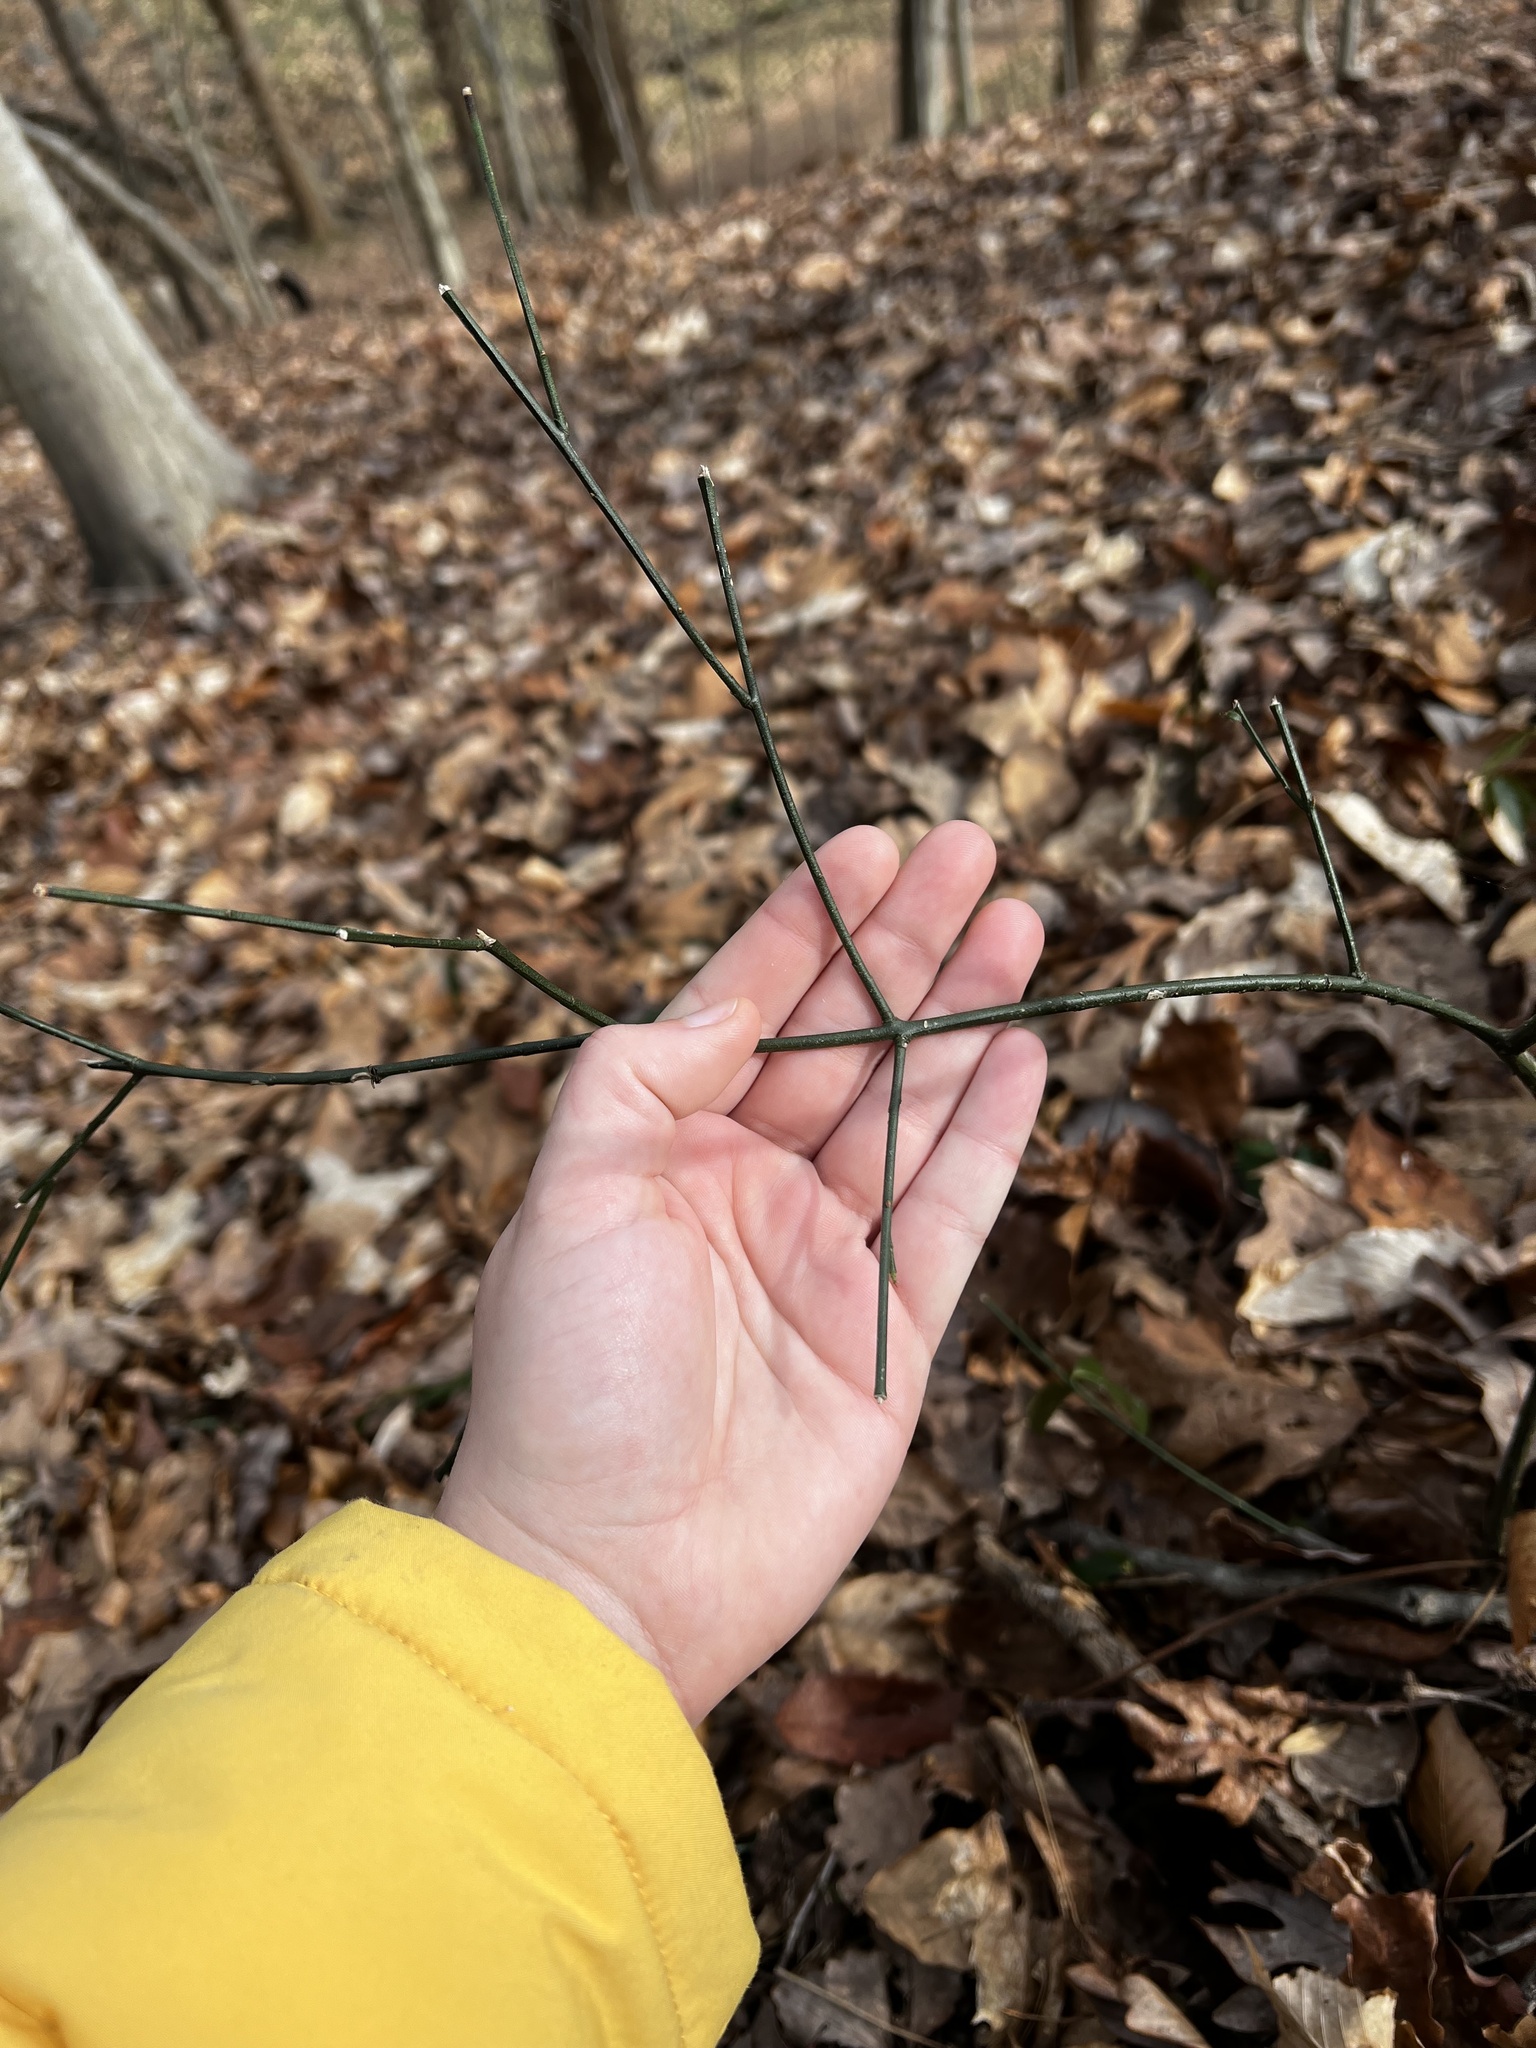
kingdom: Plantae
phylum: Tracheophyta
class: Magnoliopsida
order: Celastrales
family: Celastraceae
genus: Euonymus
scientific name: Euonymus americanus
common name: Bursting-heart
